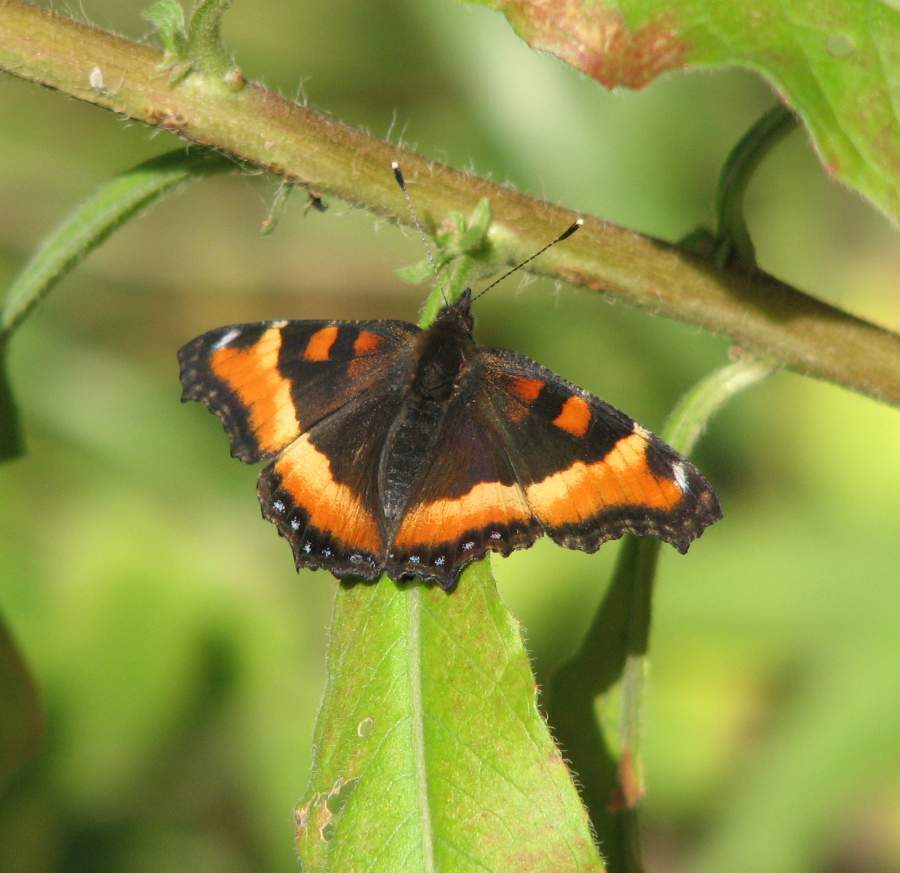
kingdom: Animalia
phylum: Arthropoda
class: Insecta
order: Lepidoptera
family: Nymphalidae
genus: Aglais
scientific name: Aglais milberti
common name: Milbert's tortoiseshell
